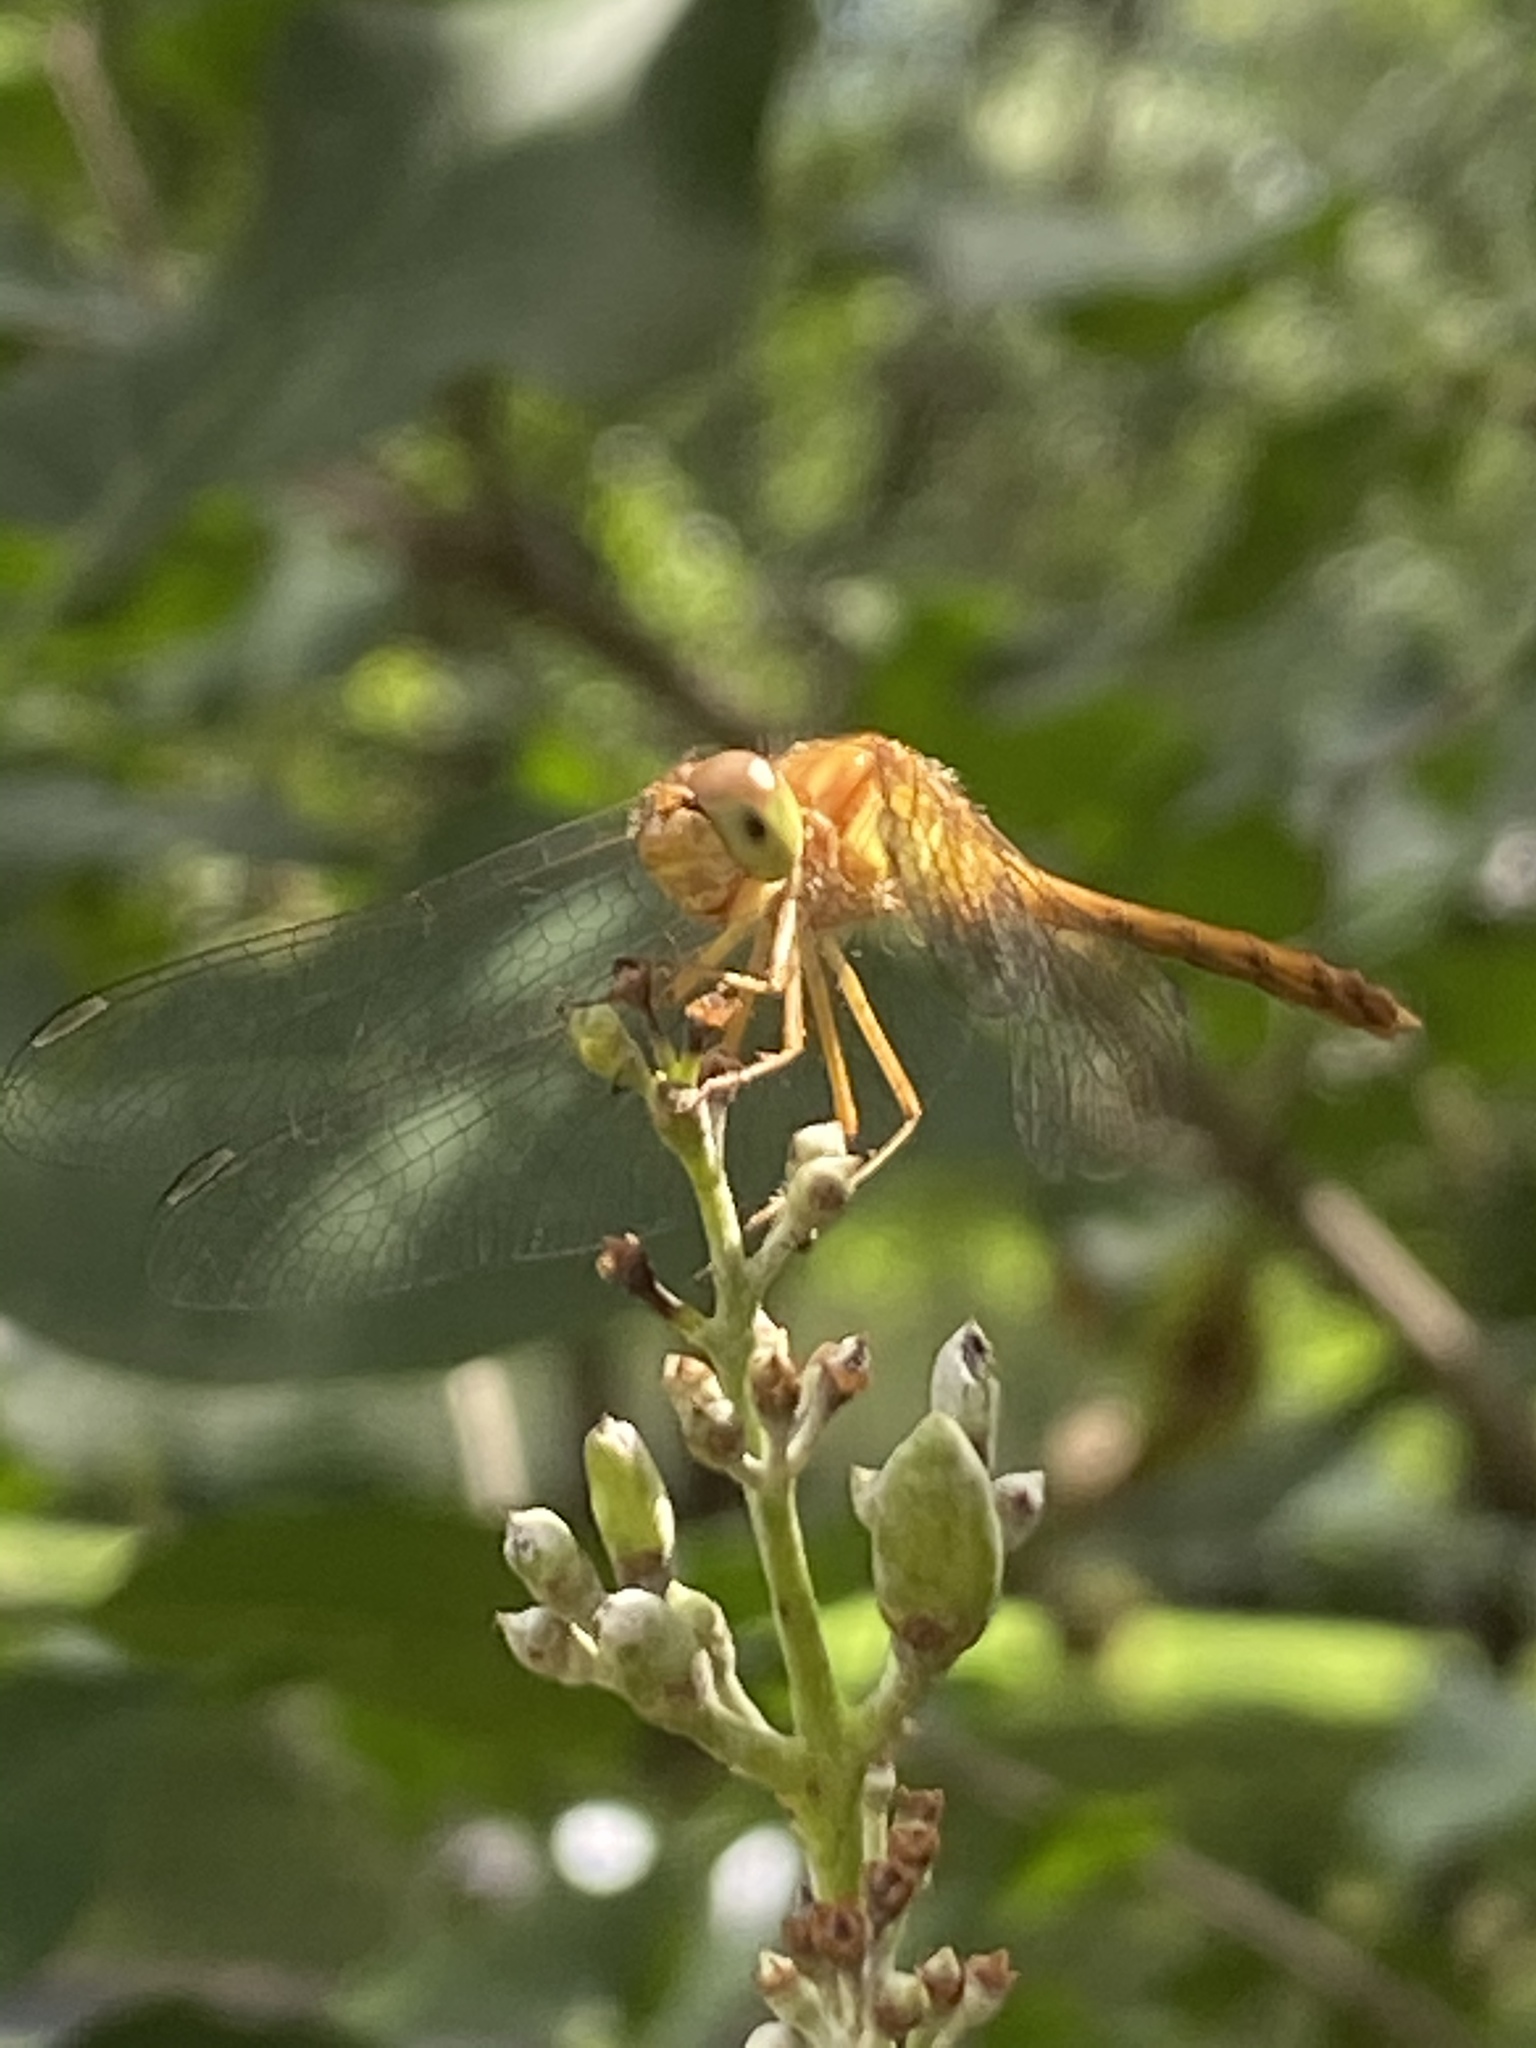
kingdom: Animalia
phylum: Arthropoda
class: Insecta
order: Odonata
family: Libellulidae
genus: Sympetrum
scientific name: Sympetrum vicinum
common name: Autumn meadowhawk
